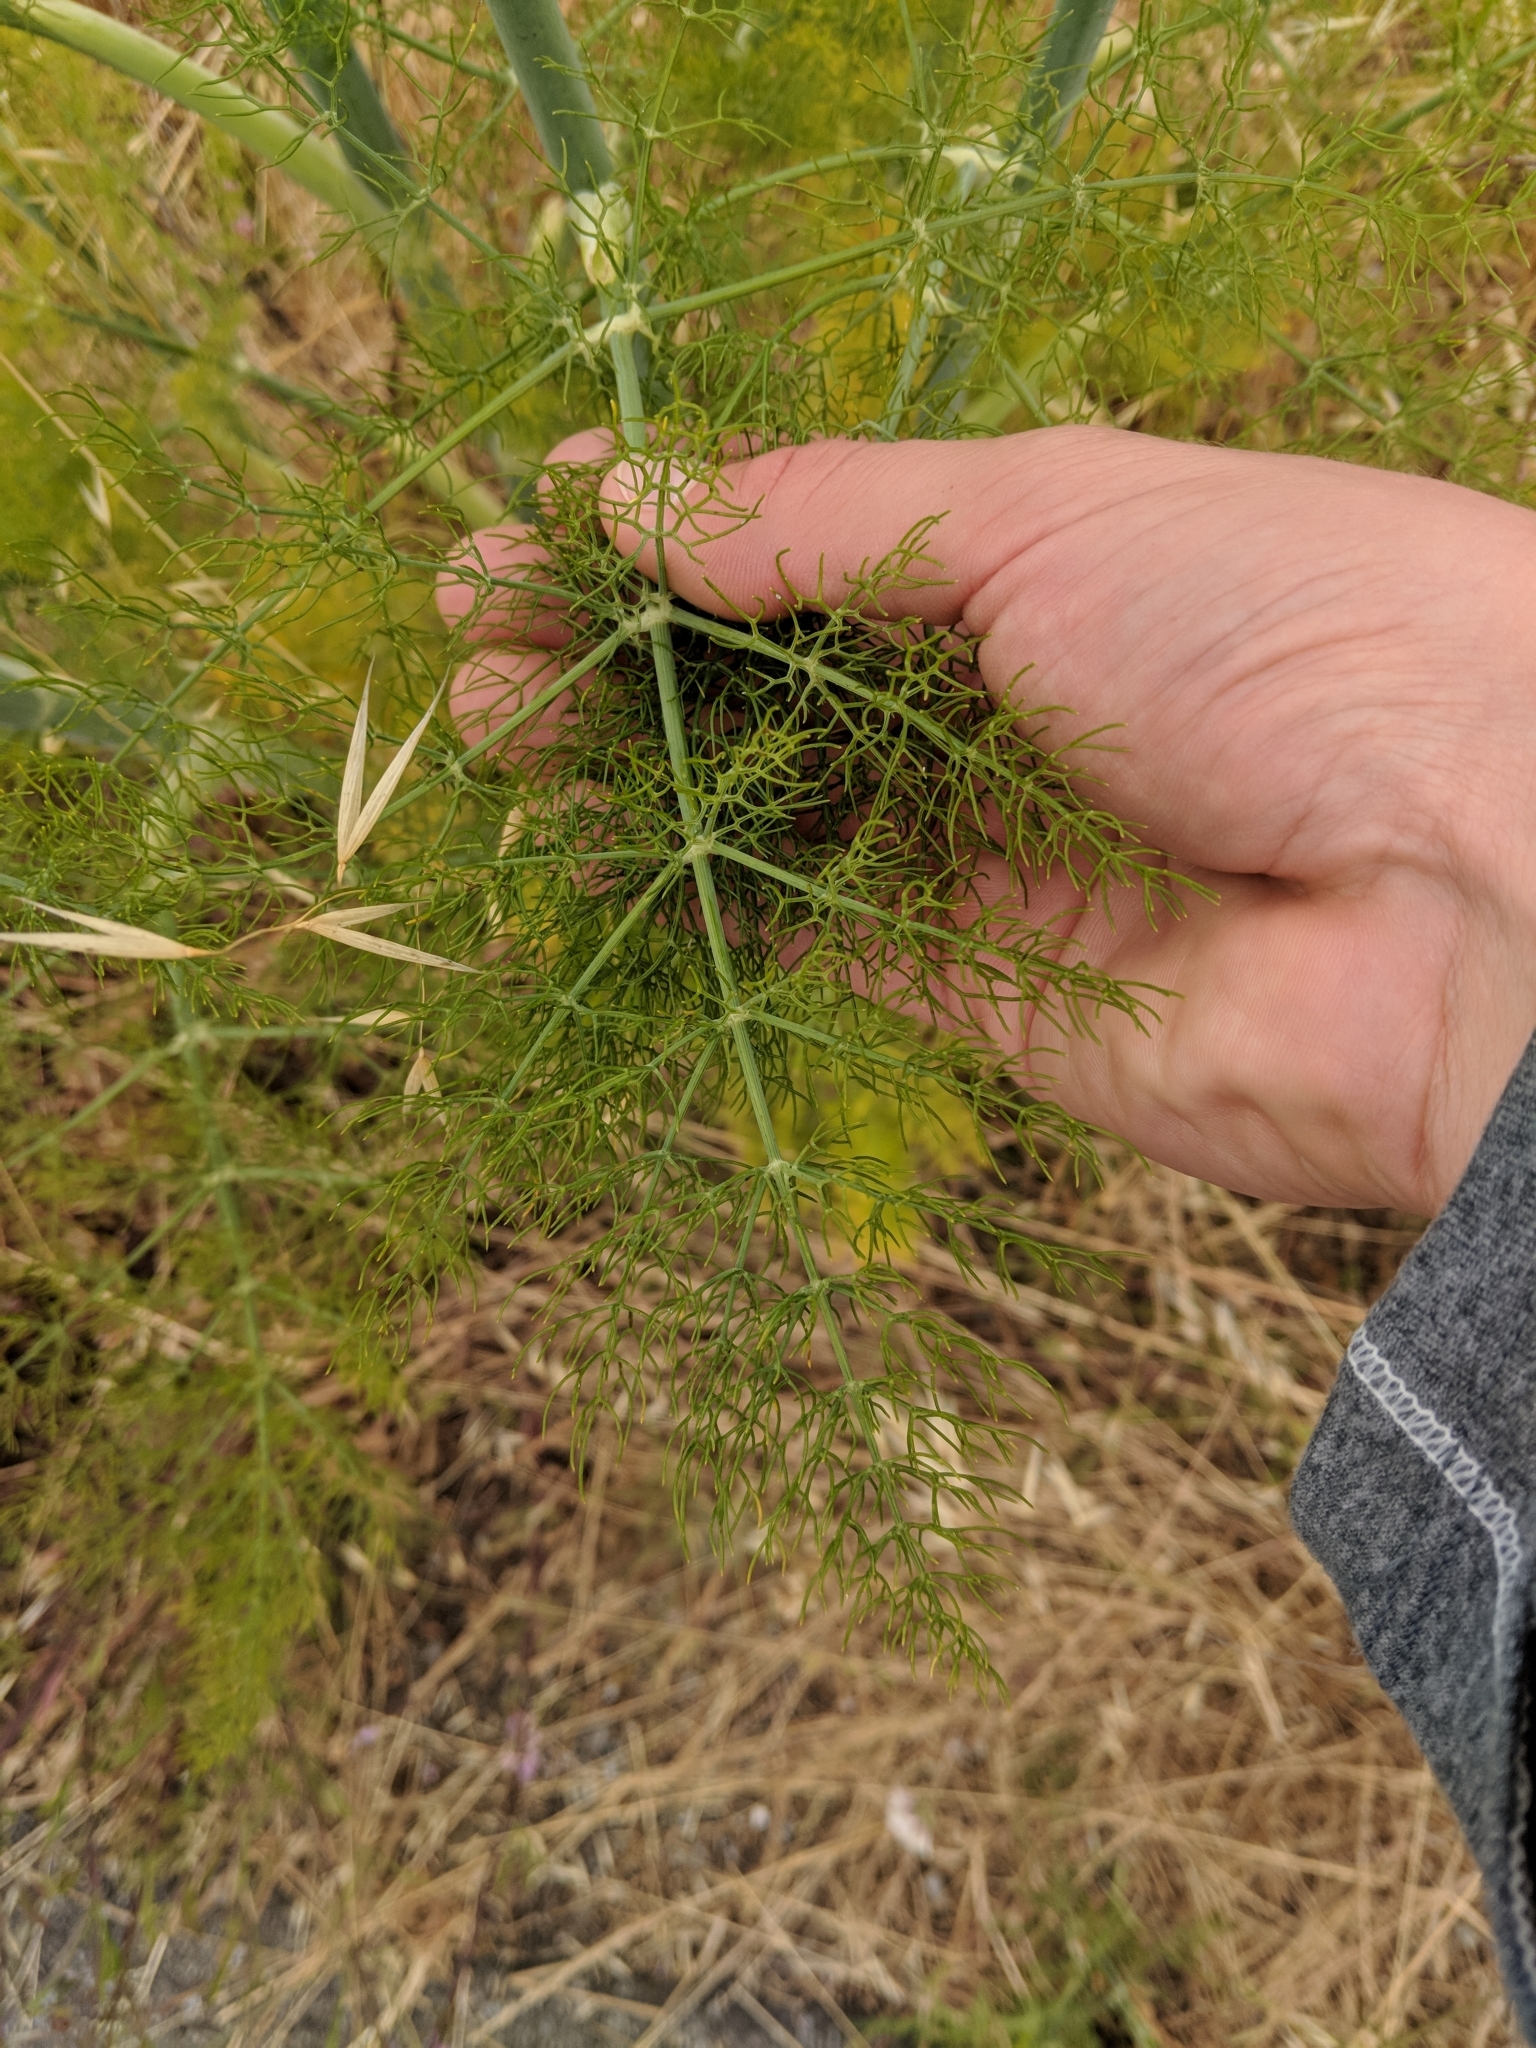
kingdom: Plantae
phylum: Tracheophyta
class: Magnoliopsida
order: Apiales
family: Apiaceae
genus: Foeniculum
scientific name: Foeniculum vulgare
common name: Fennel
